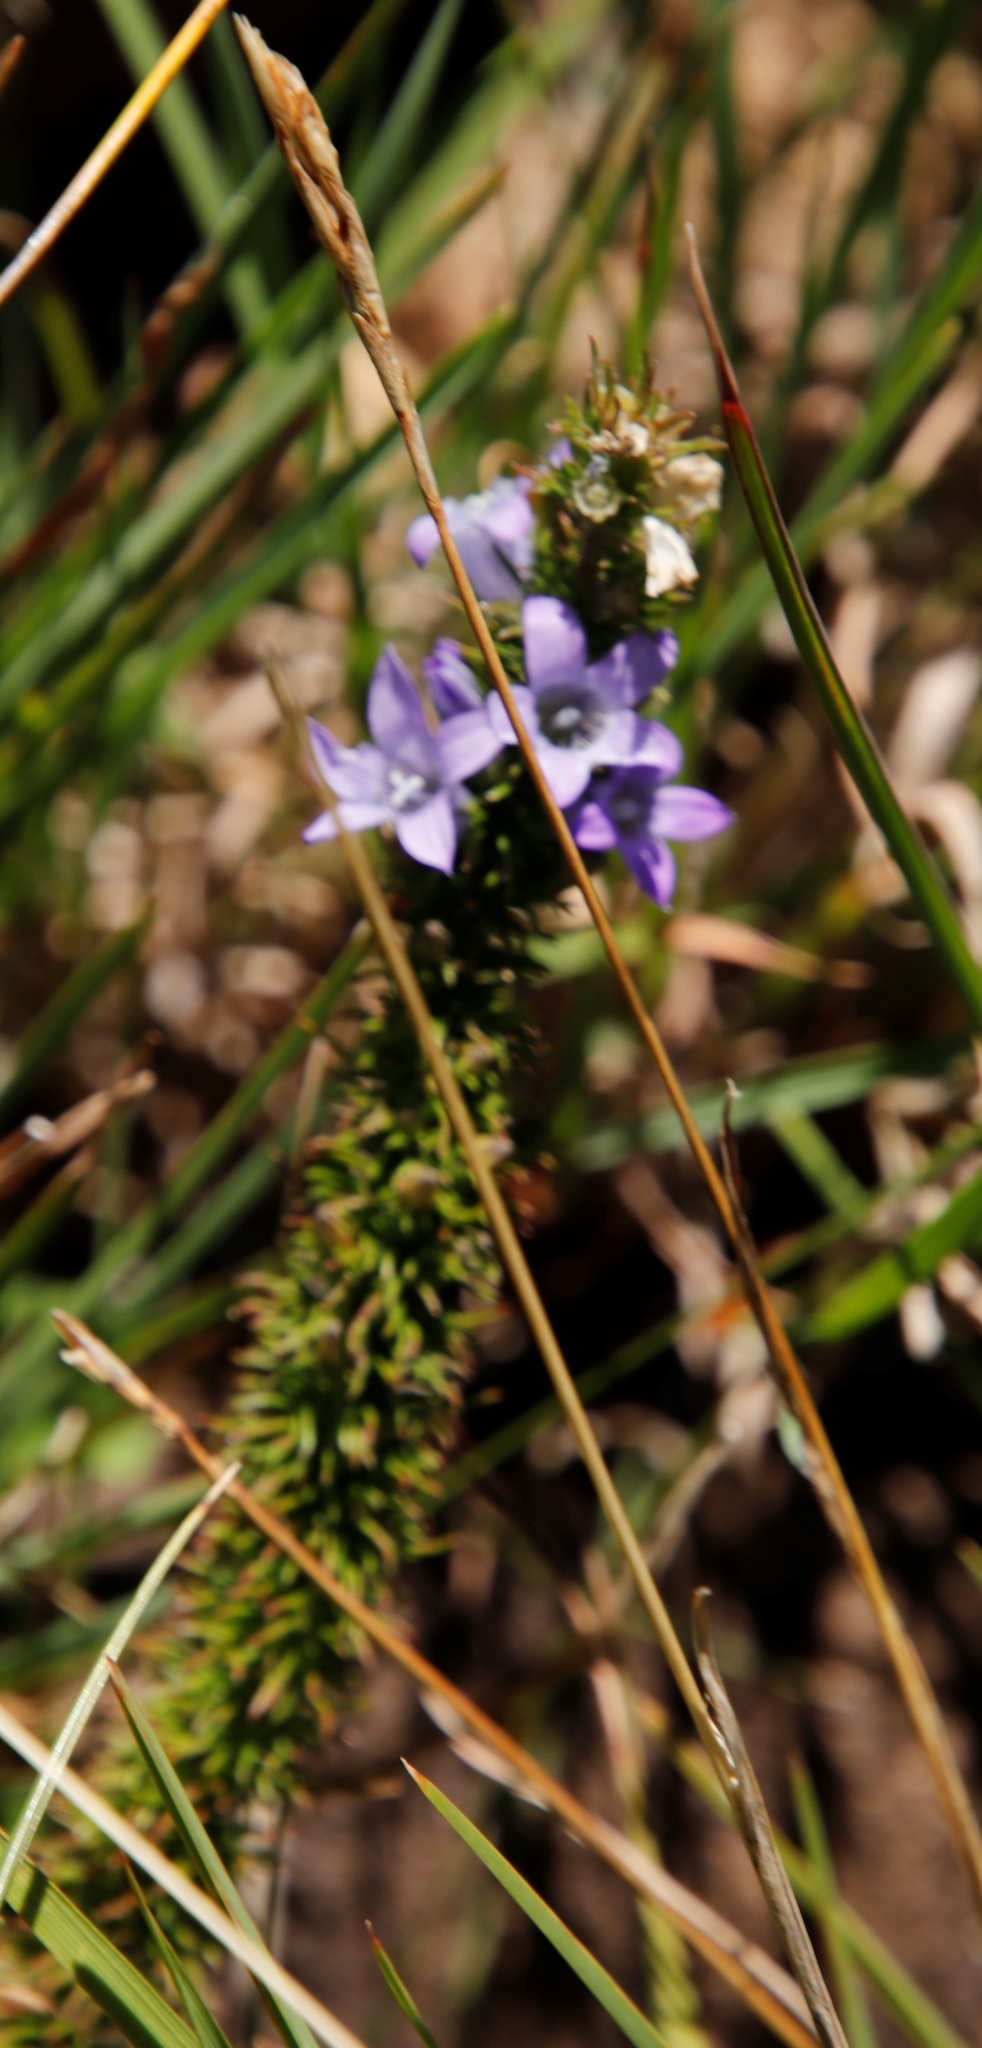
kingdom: Plantae
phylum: Tracheophyta
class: Magnoliopsida
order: Asterales
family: Campanulaceae
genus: Wahlenbergia
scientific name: Wahlenbergia fasciculata
